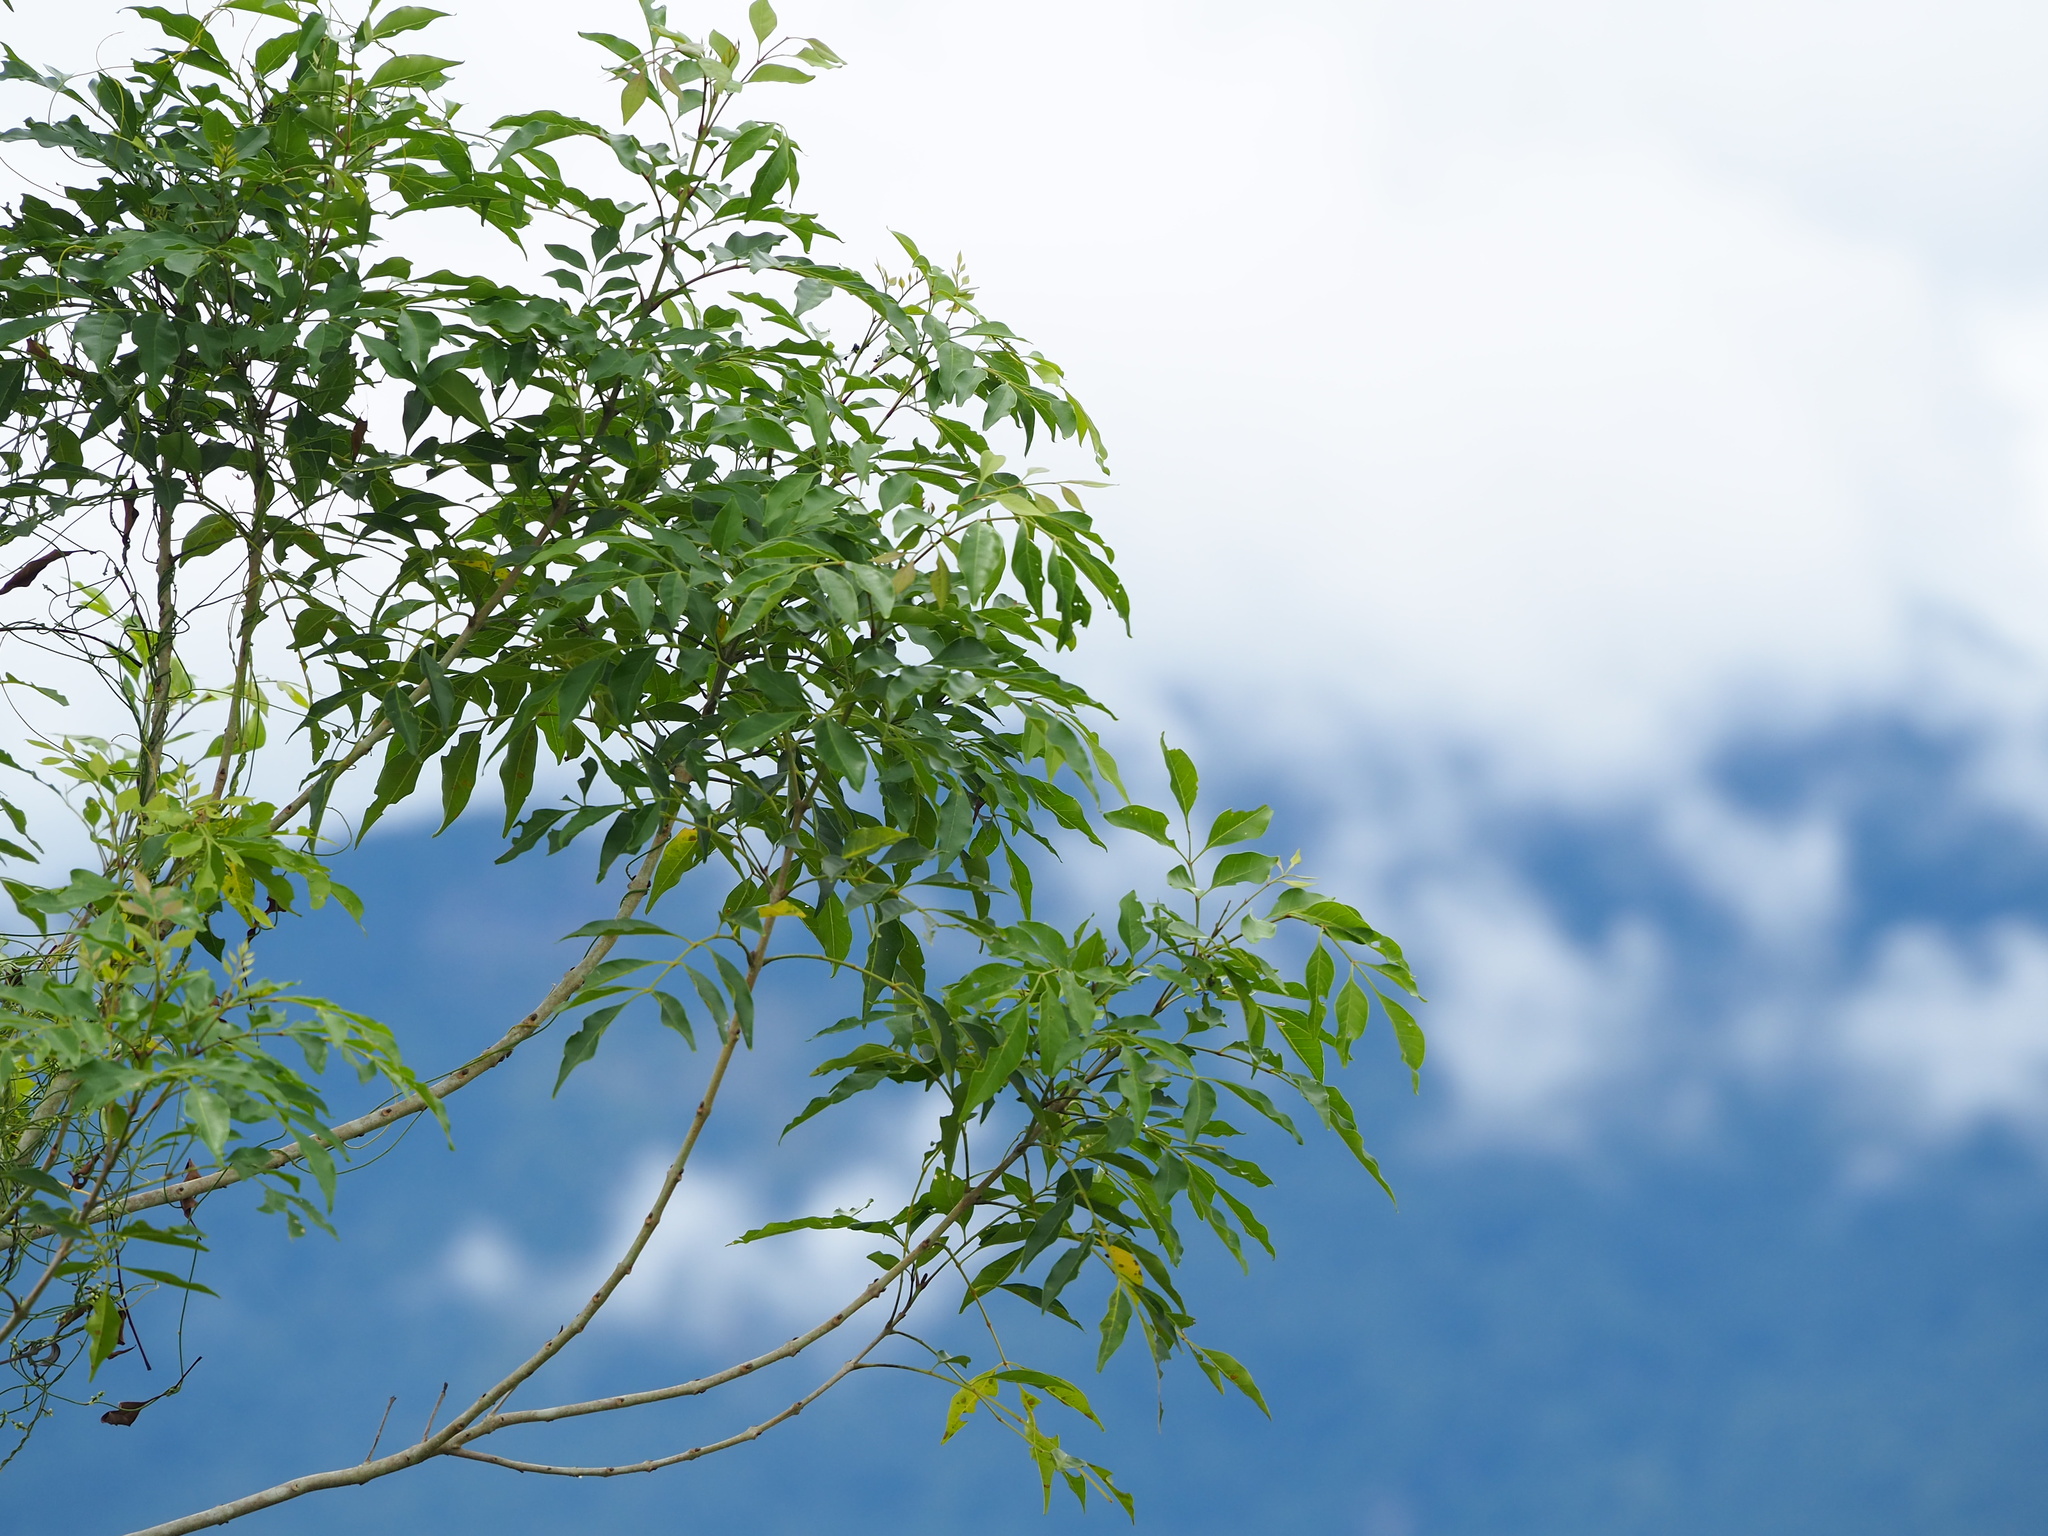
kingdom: Plantae
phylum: Tracheophyta
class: Magnoliopsida
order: Lamiales
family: Oleaceae
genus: Fraxinus
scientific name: Fraxinus griffithii
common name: Himalayan ash
